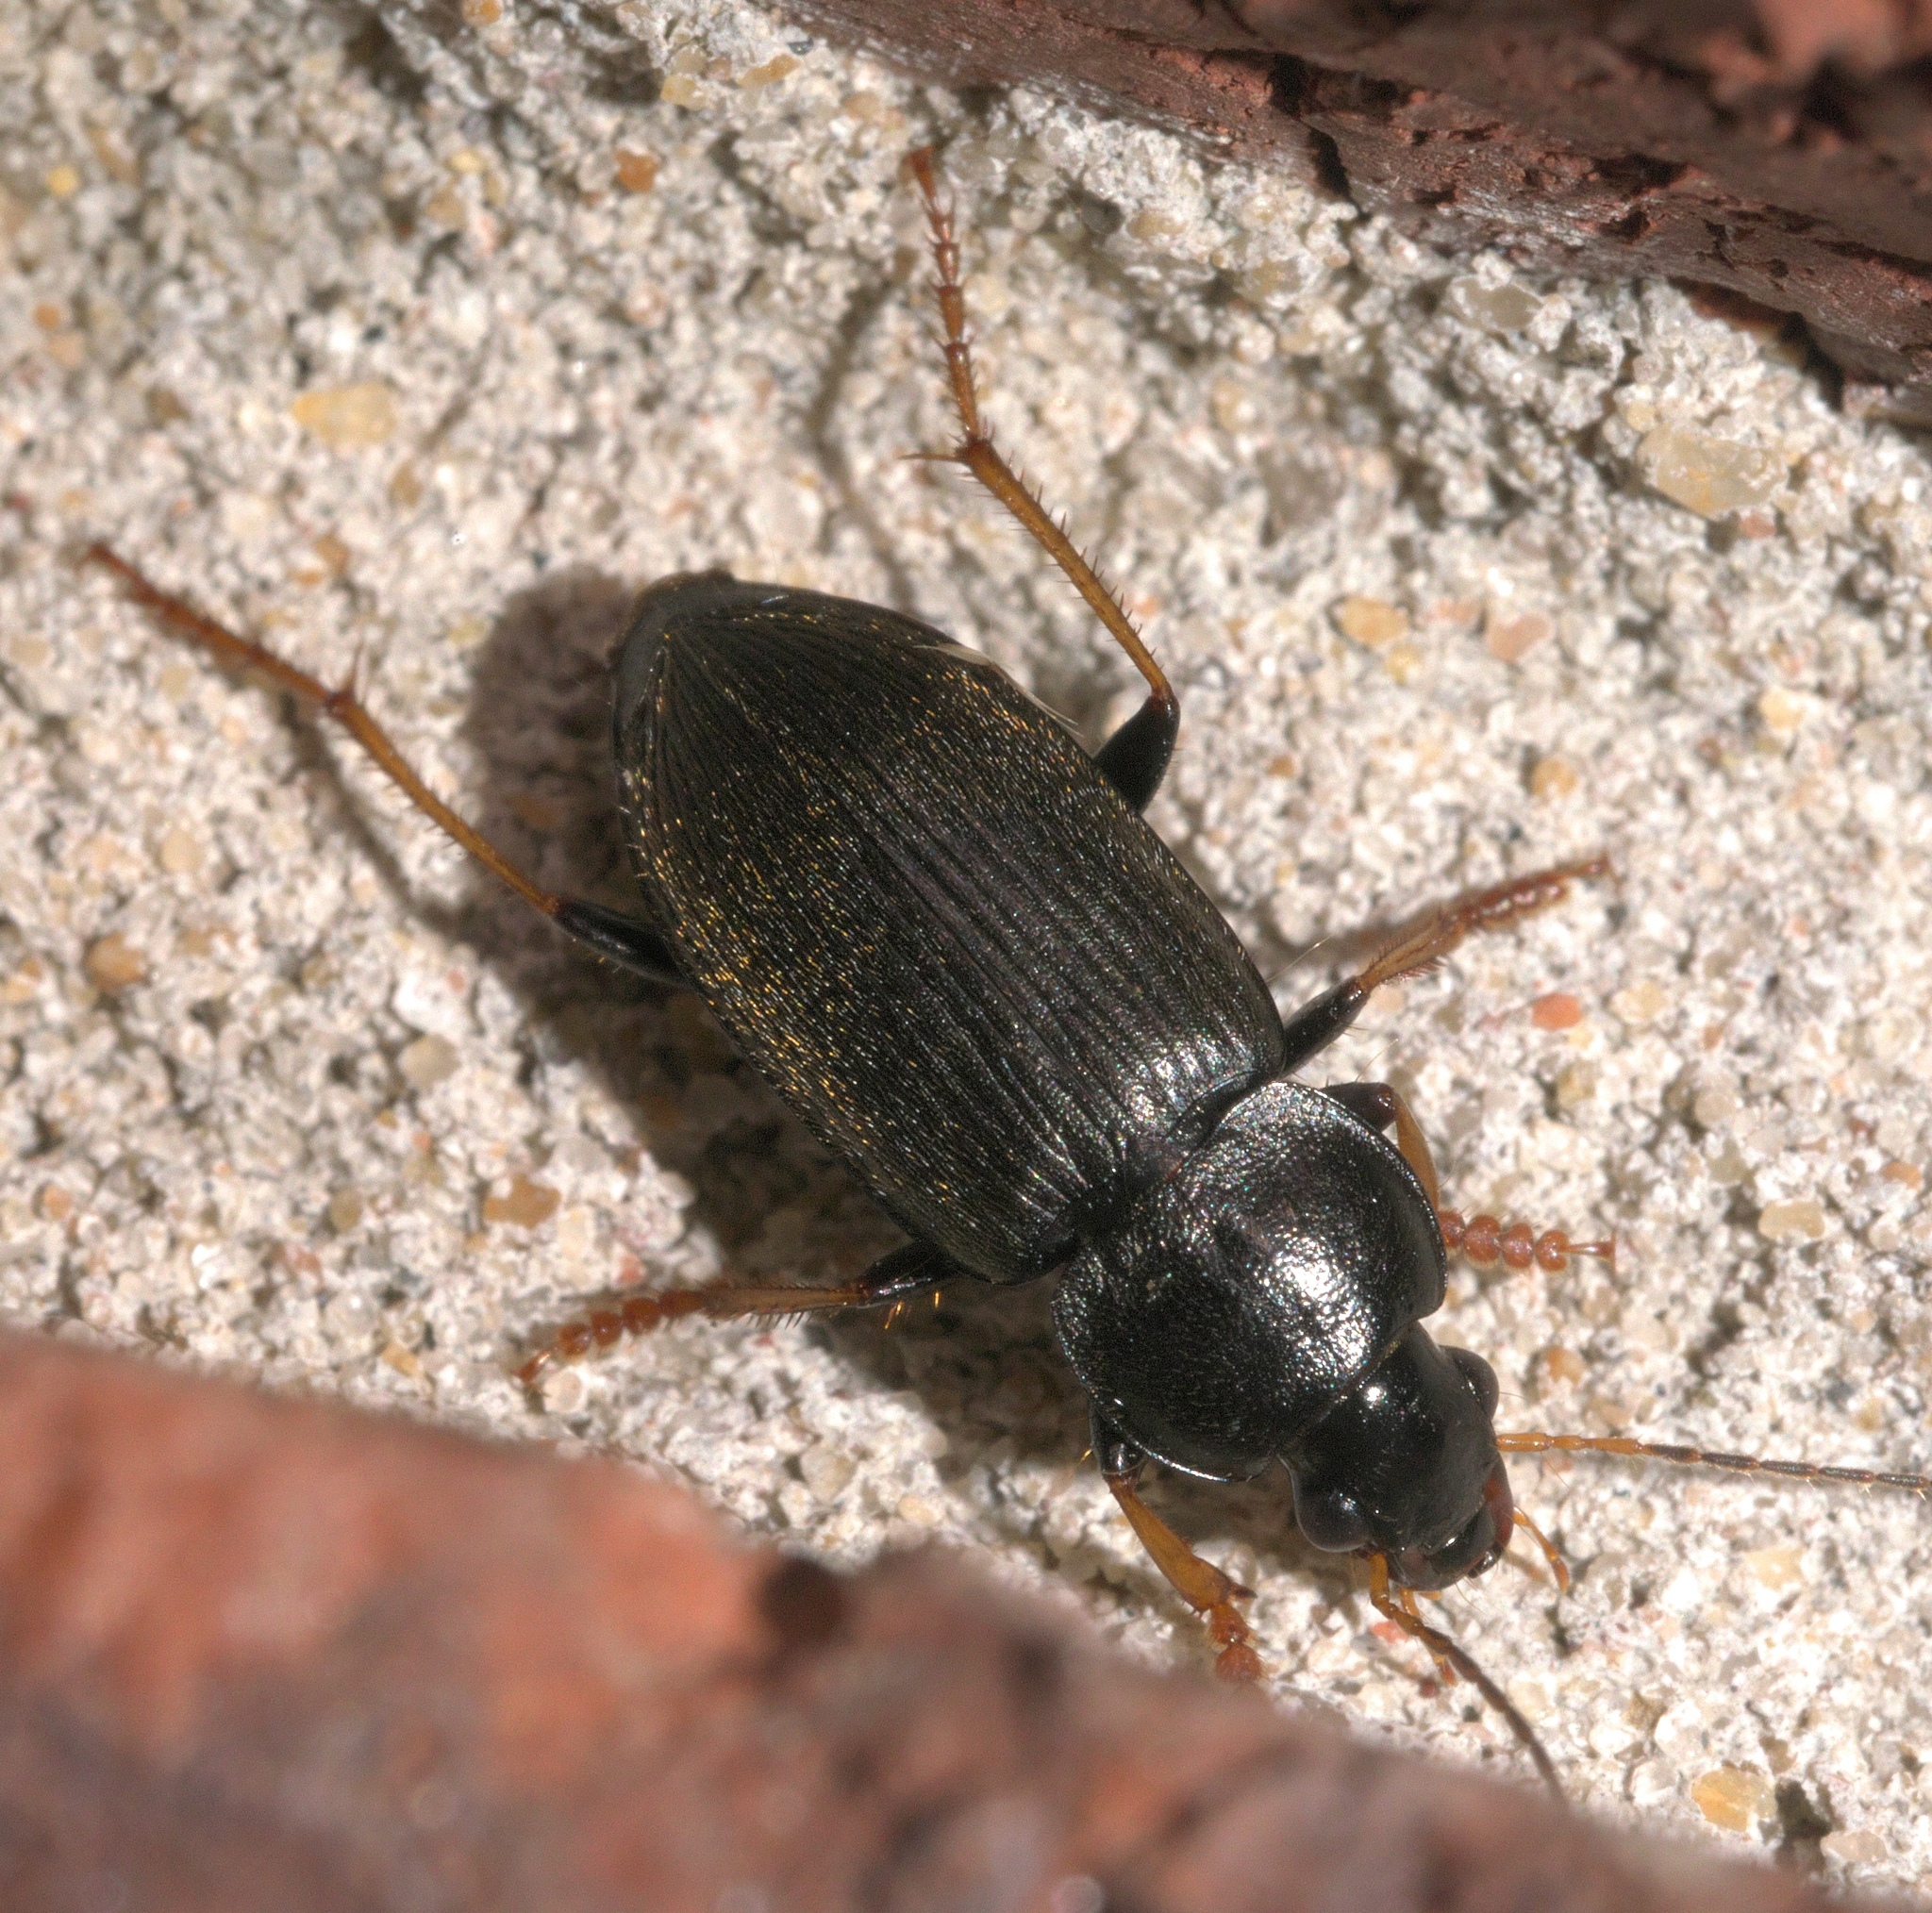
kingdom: Animalia
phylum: Arthropoda
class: Insecta
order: Coleoptera
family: Carabidae
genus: Amphasia
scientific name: Amphasia sericea
